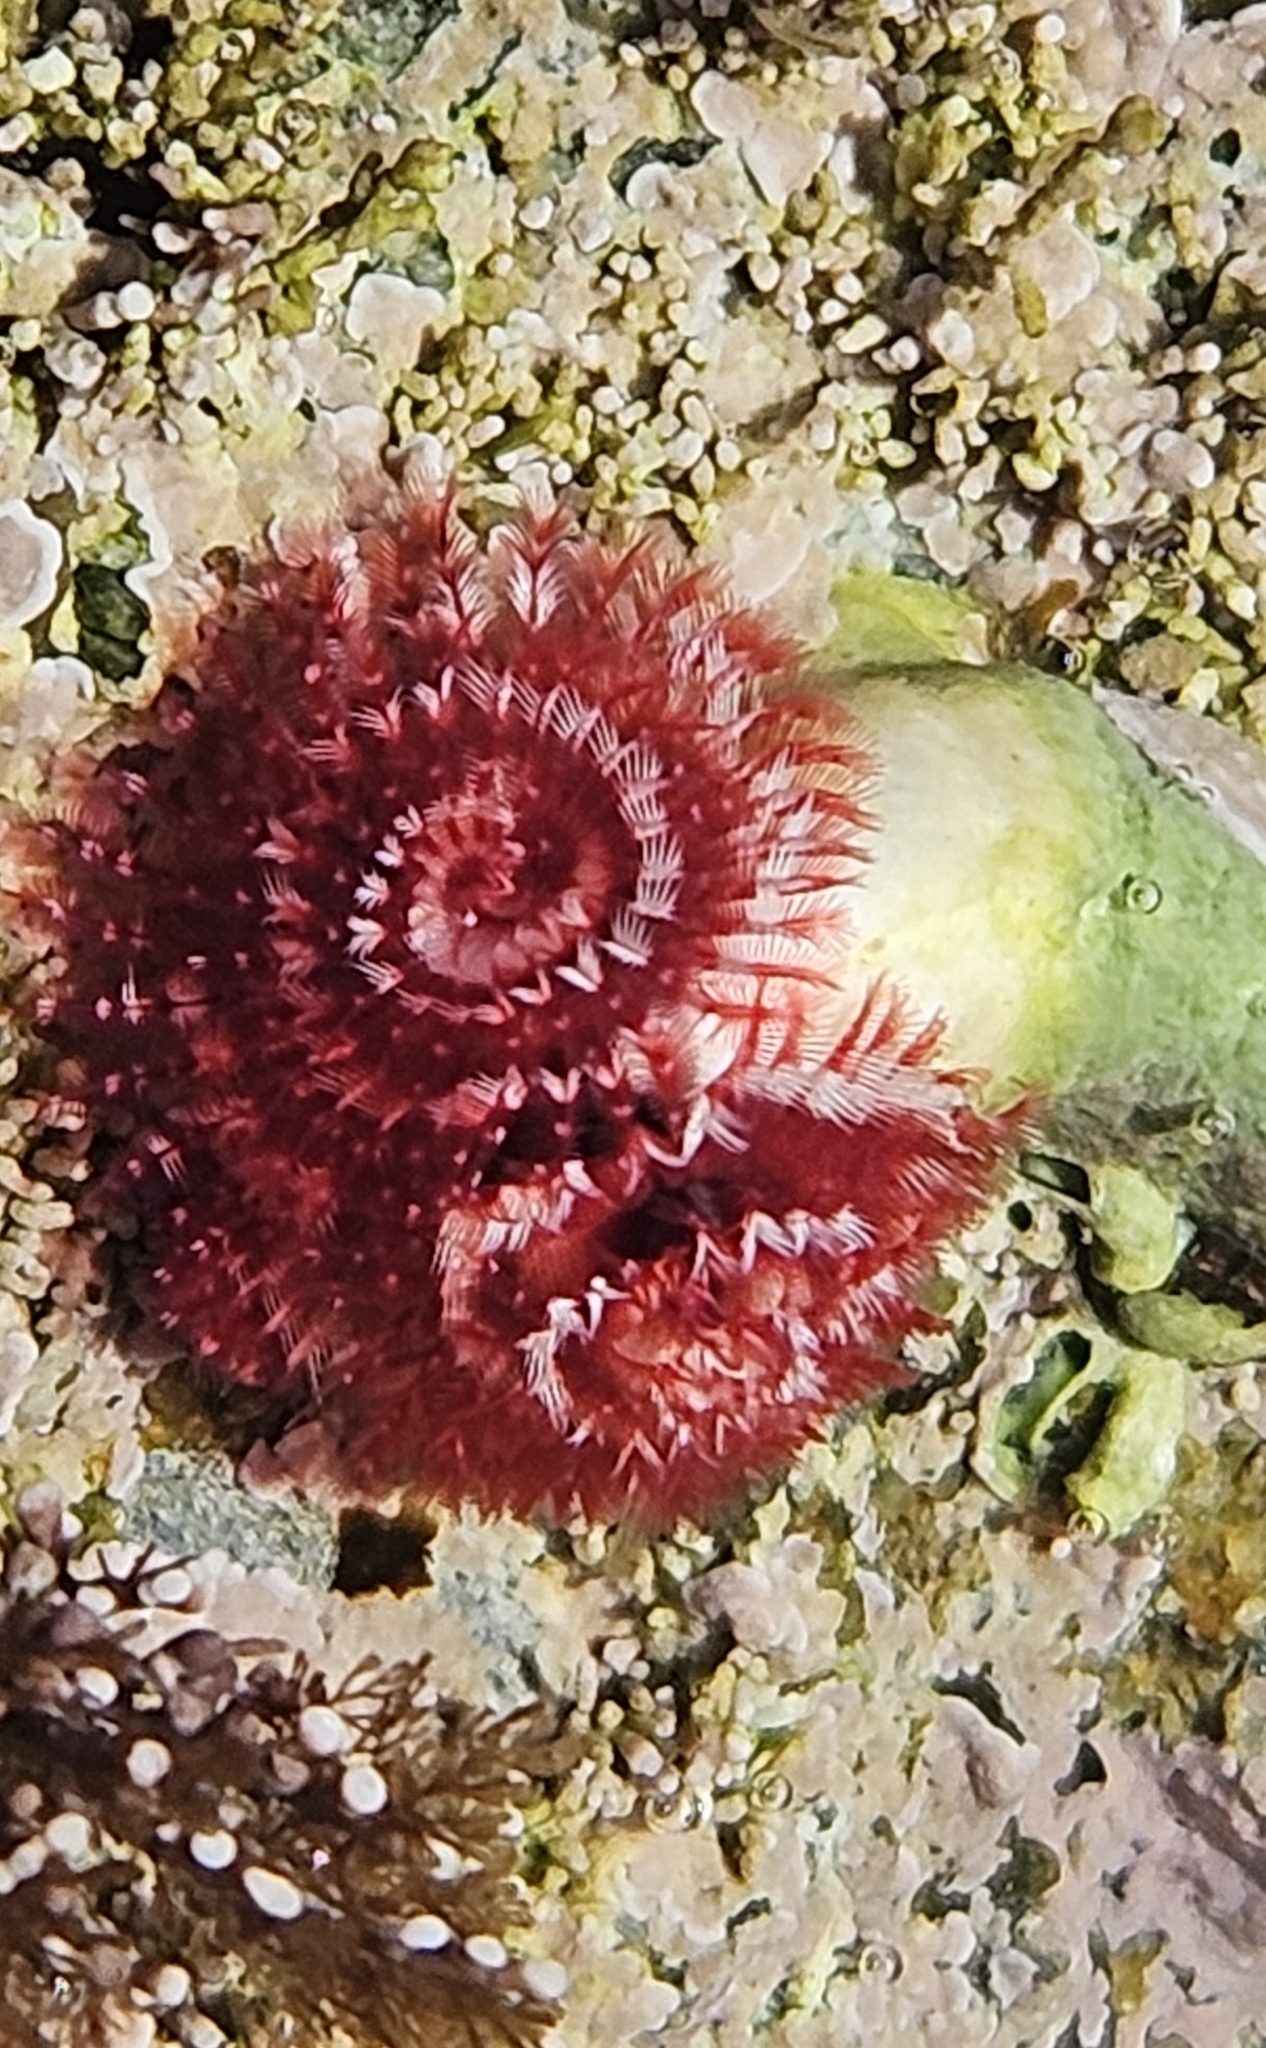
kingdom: Animalia
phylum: Annelida
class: Polychaeta
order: Sabellida
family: Serpulidae
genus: Spirobranchus
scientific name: Spirobranchus spinosus
